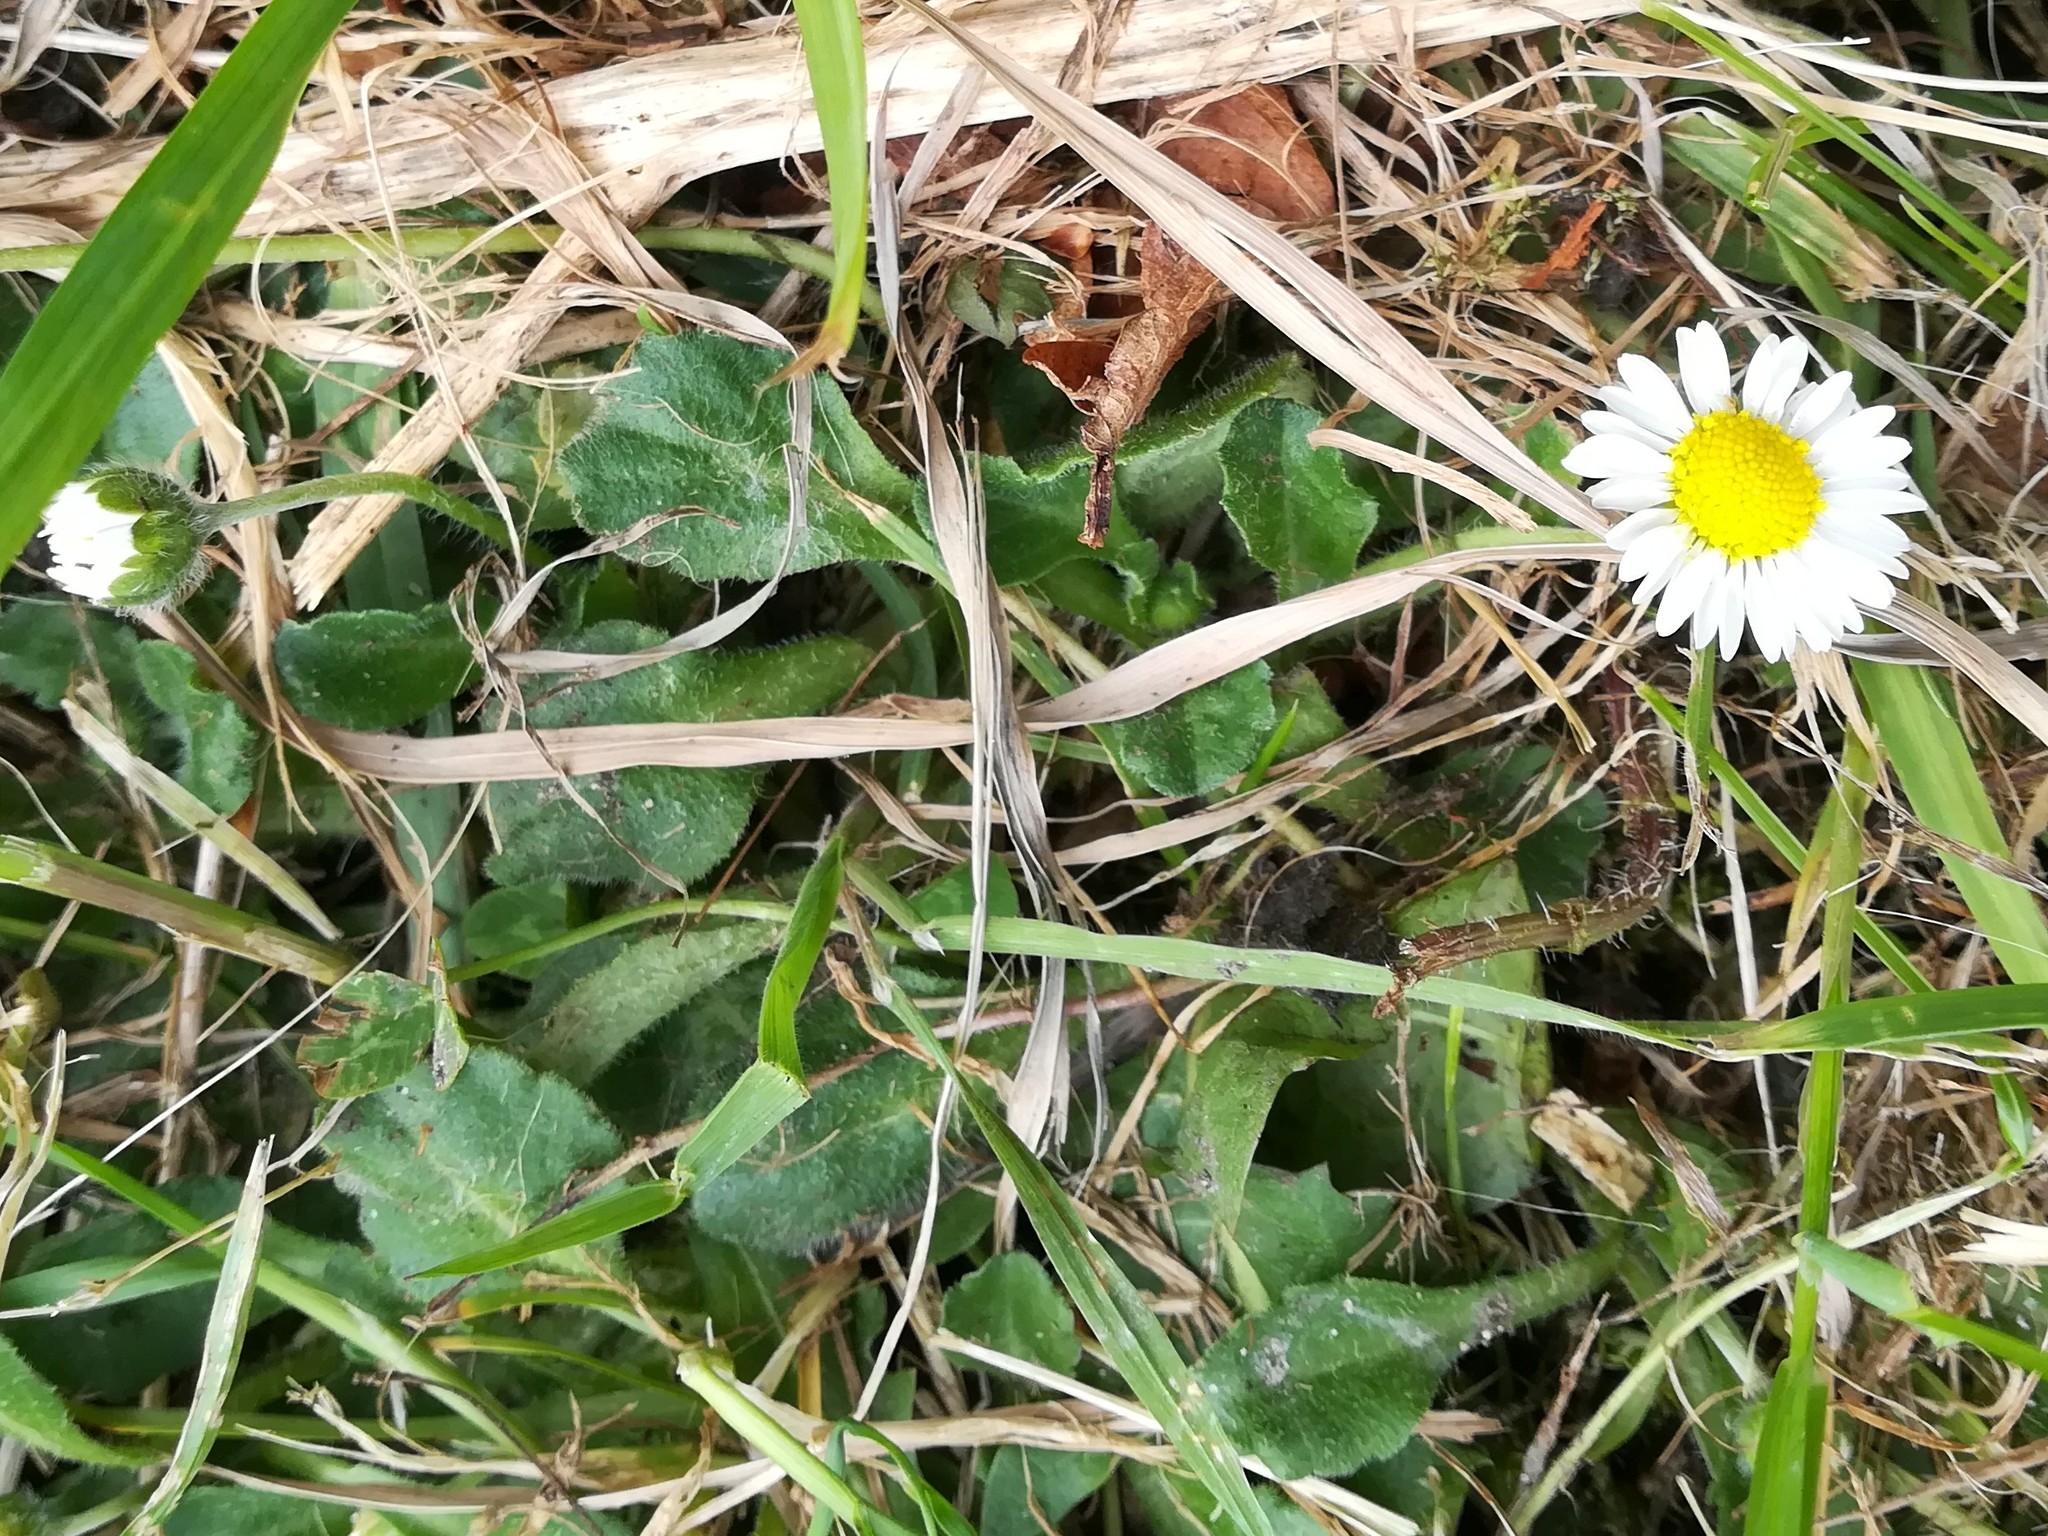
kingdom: Plantae
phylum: Tracheophyta
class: Magnoliopsida
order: Asterales
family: Asteraceae
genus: Bellis
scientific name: Bellis perennis
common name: Lawndaisy
